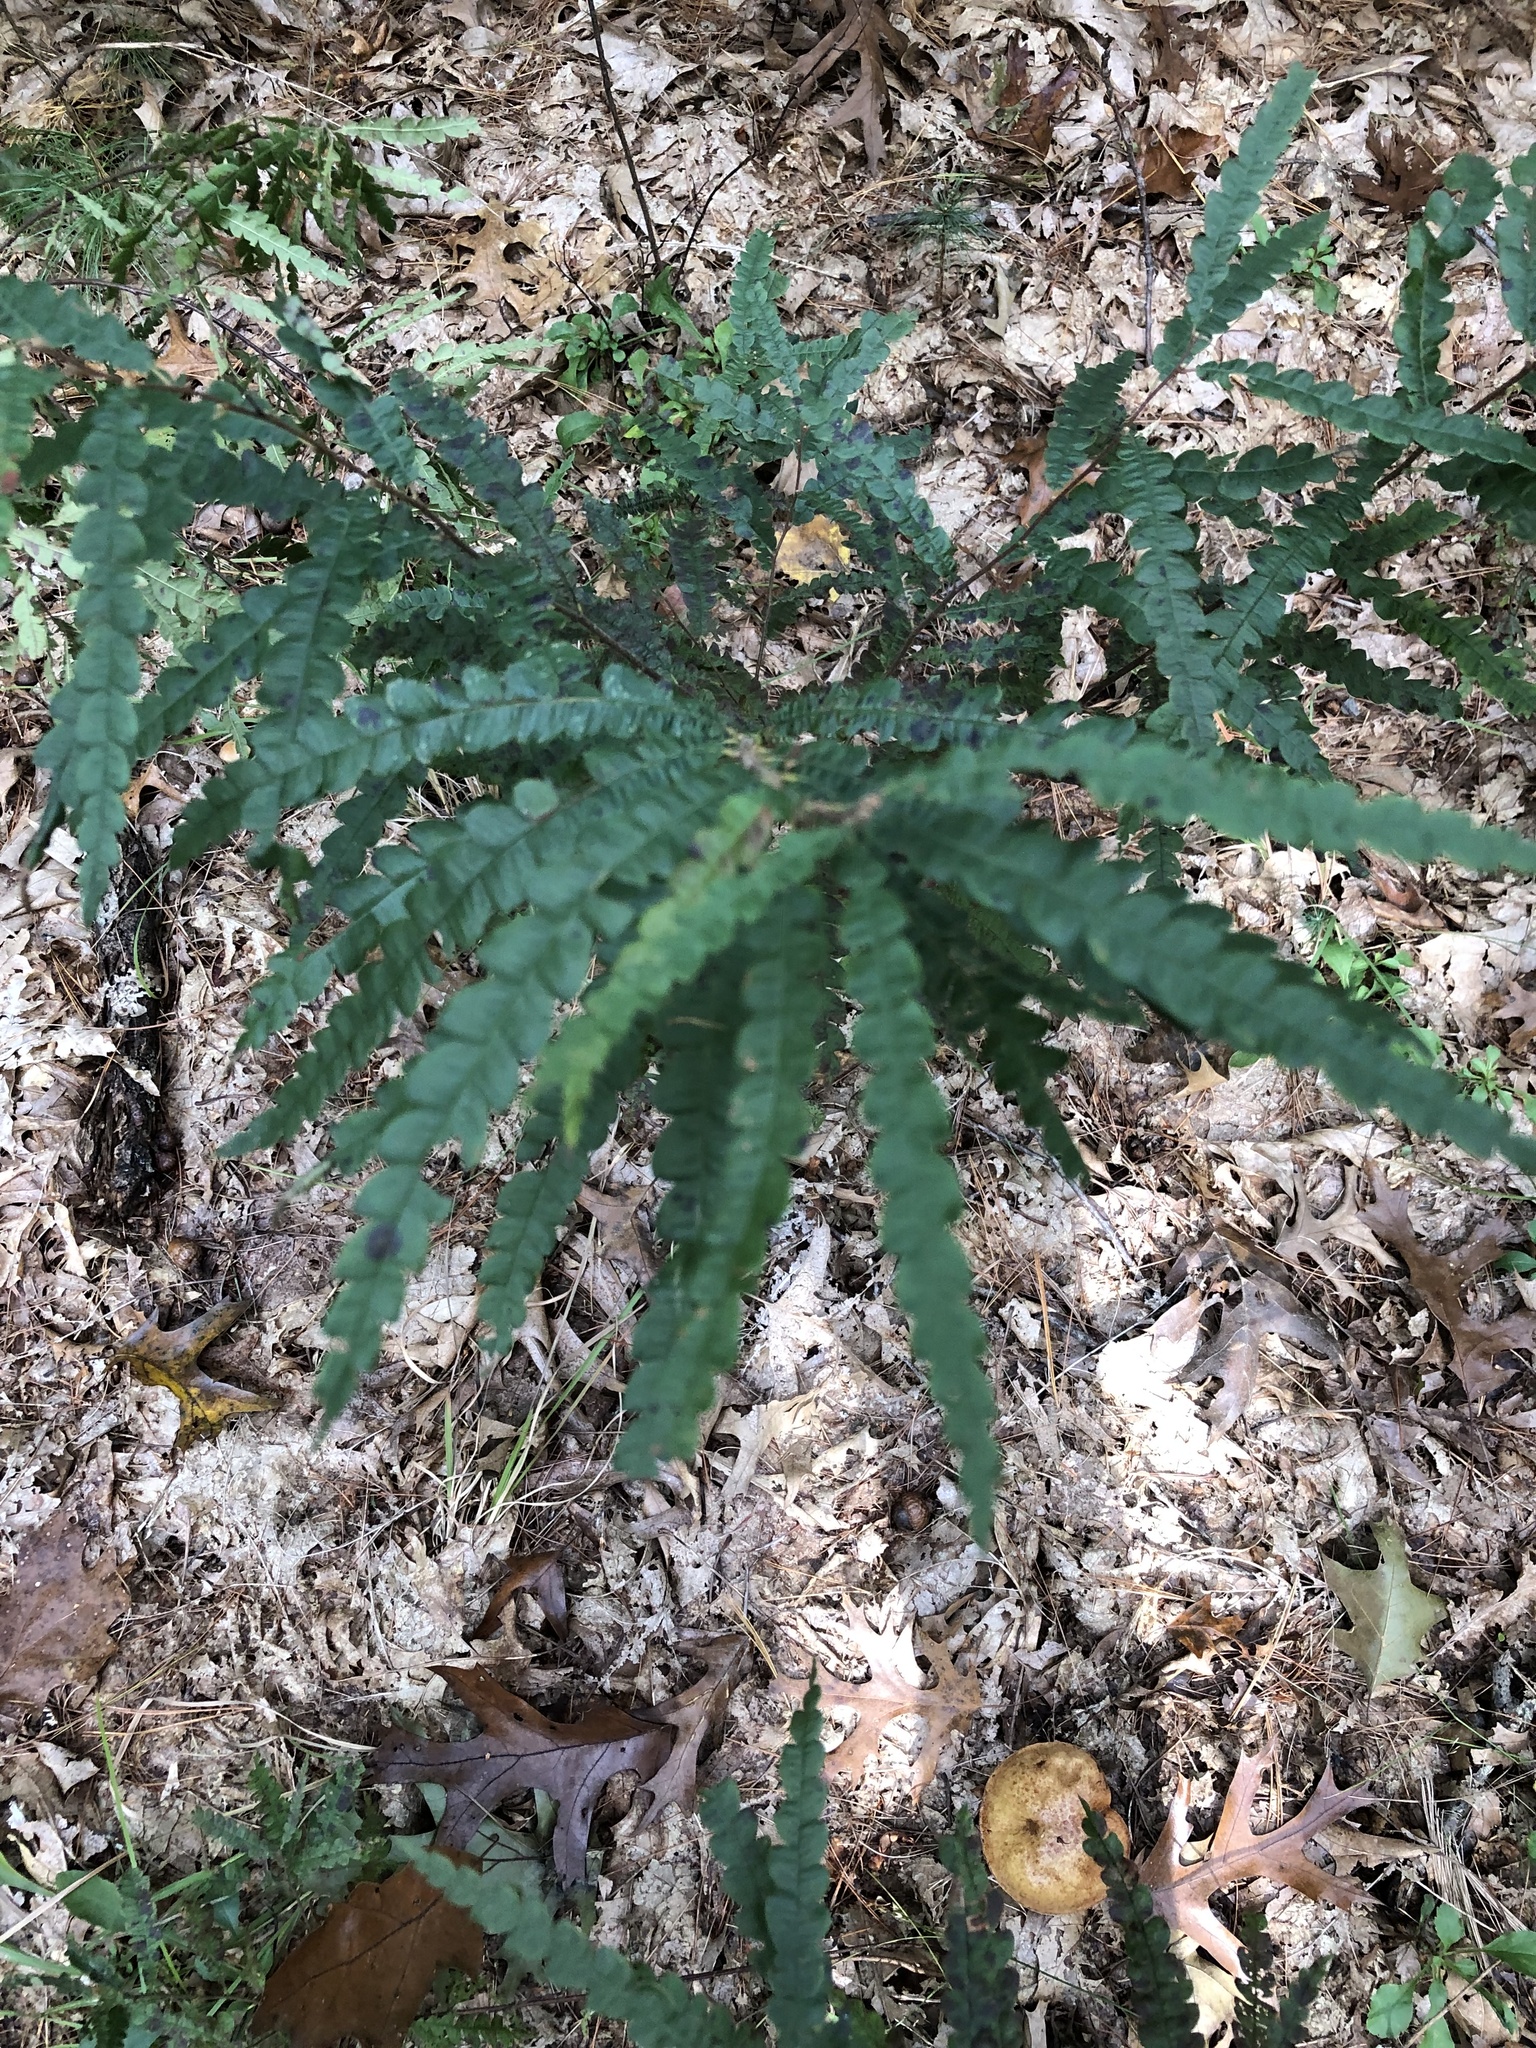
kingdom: Plantae
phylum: Tracheophyta
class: Magnoliopsida
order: Fagales
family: Myricaceae
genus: Comptonia
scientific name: Comptonia peregrina
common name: Sweet-fern
